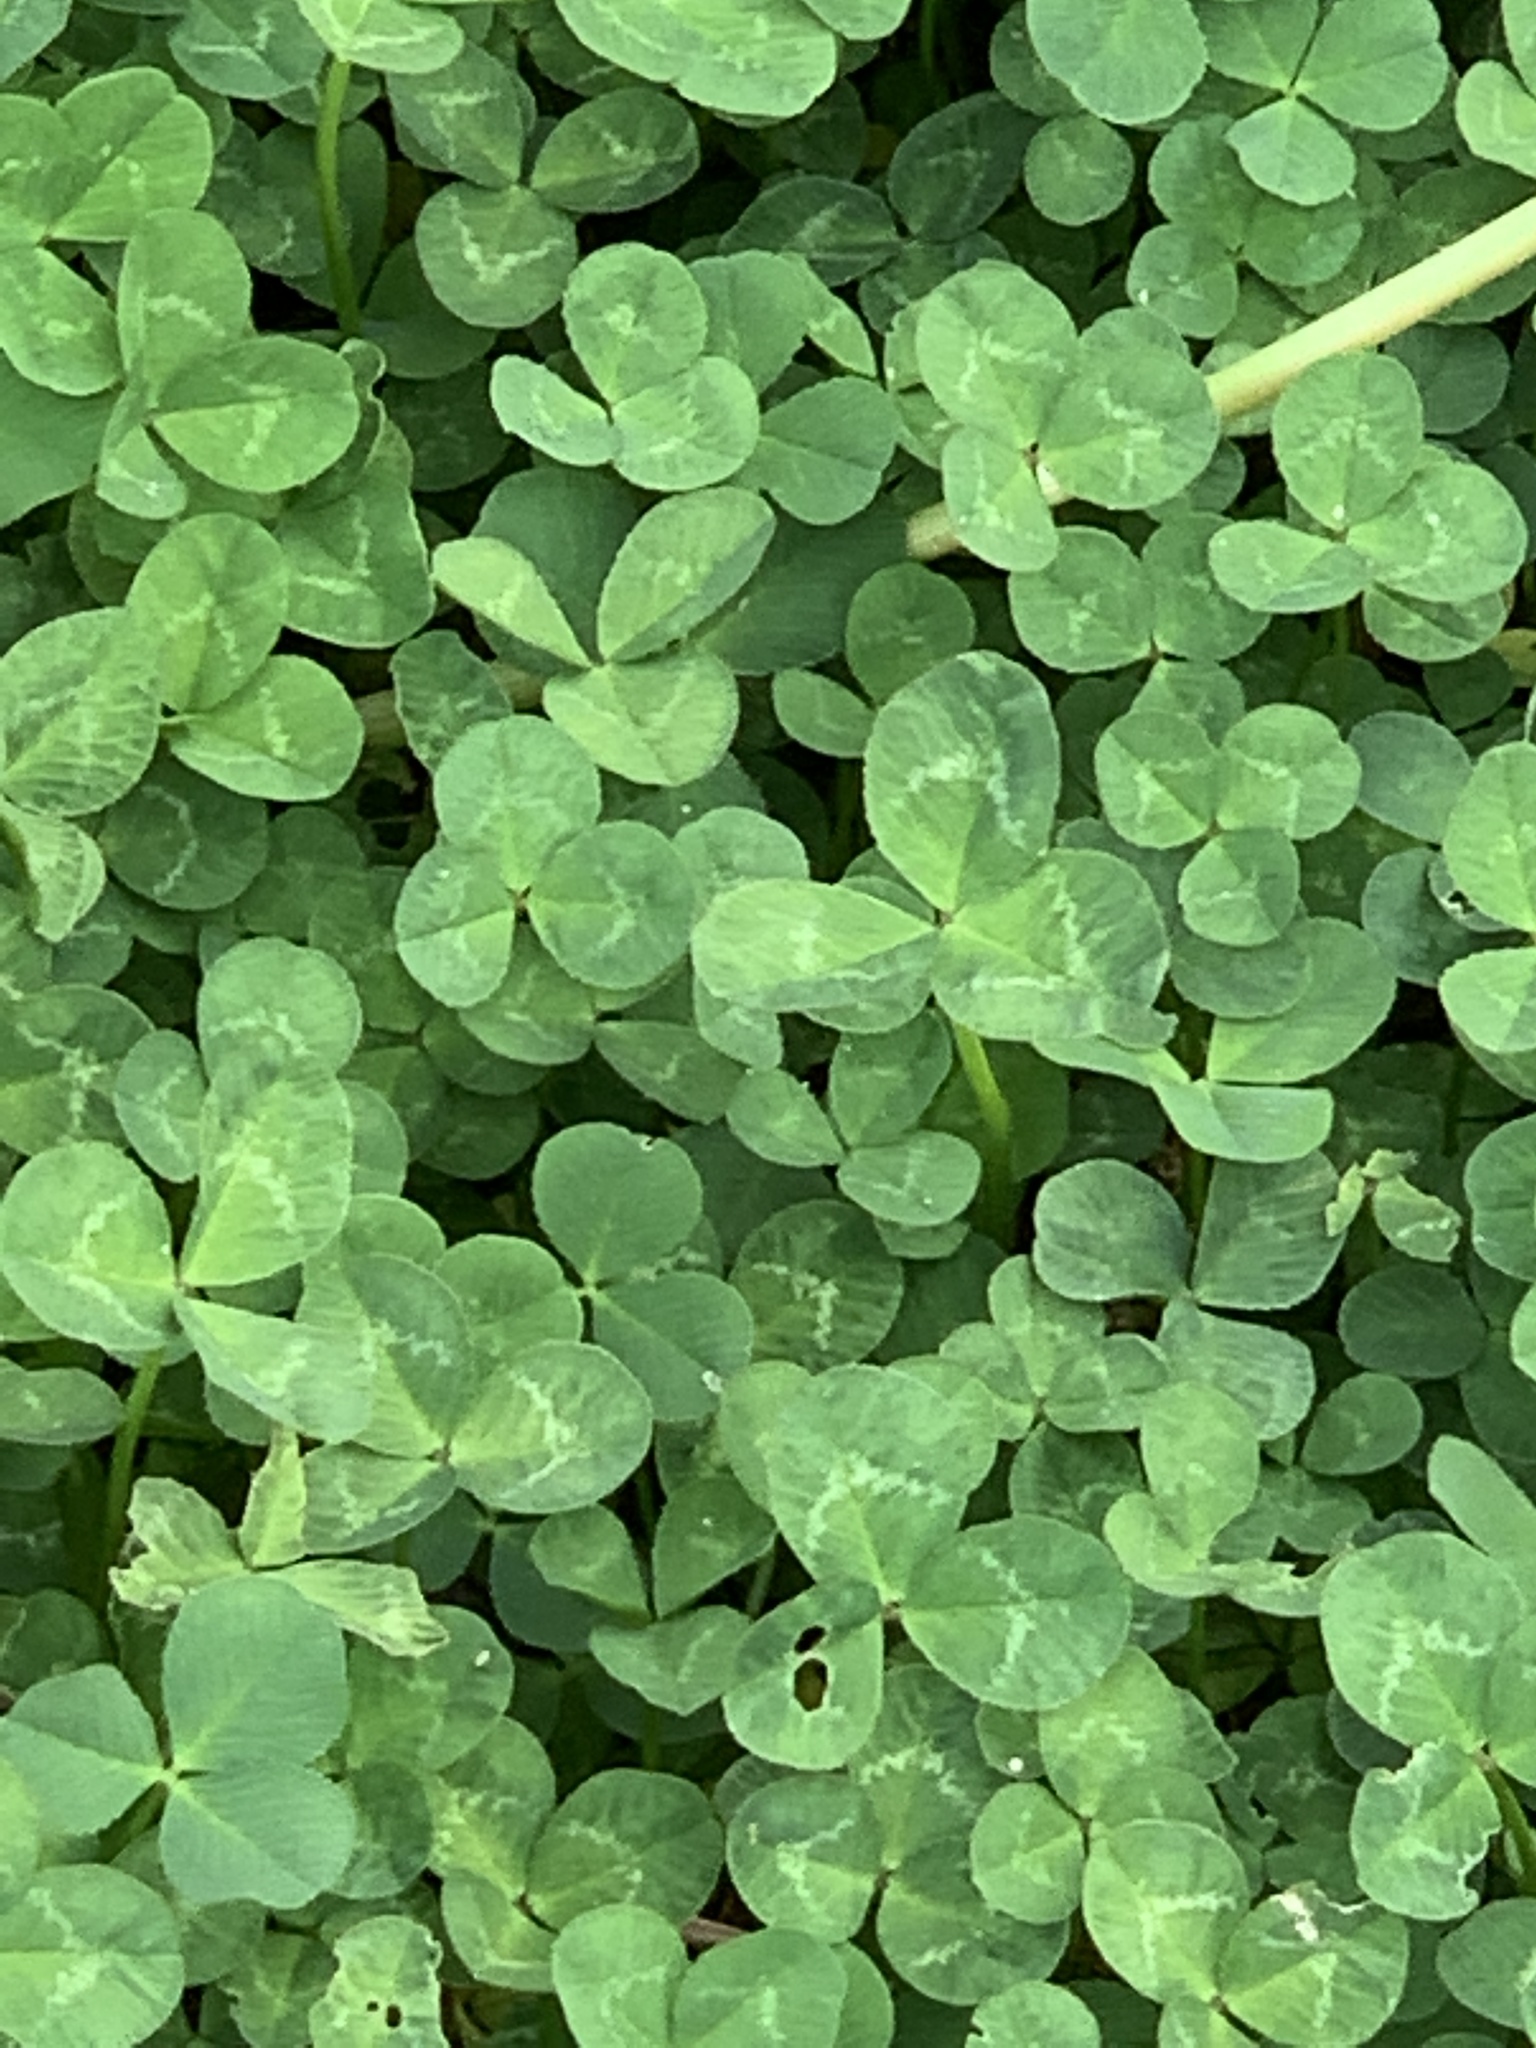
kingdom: Plantae
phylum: Tracheophyta
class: Magnoliopsida
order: Fabales
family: Fabaceae
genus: Trifolium
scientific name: Trifolium repens
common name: White clover
